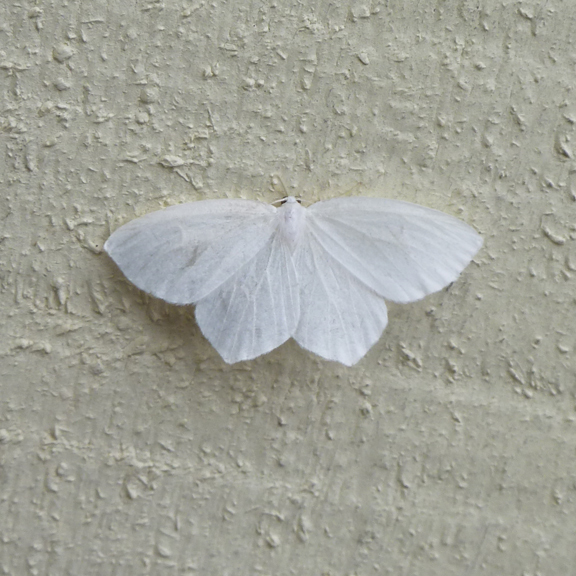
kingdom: Animalia
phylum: Arthropoda
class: Insecta
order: Lepidoptera
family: Geometridae
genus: Eugonobapta
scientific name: Eugonobapta nivosaria
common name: Snowy geometer
